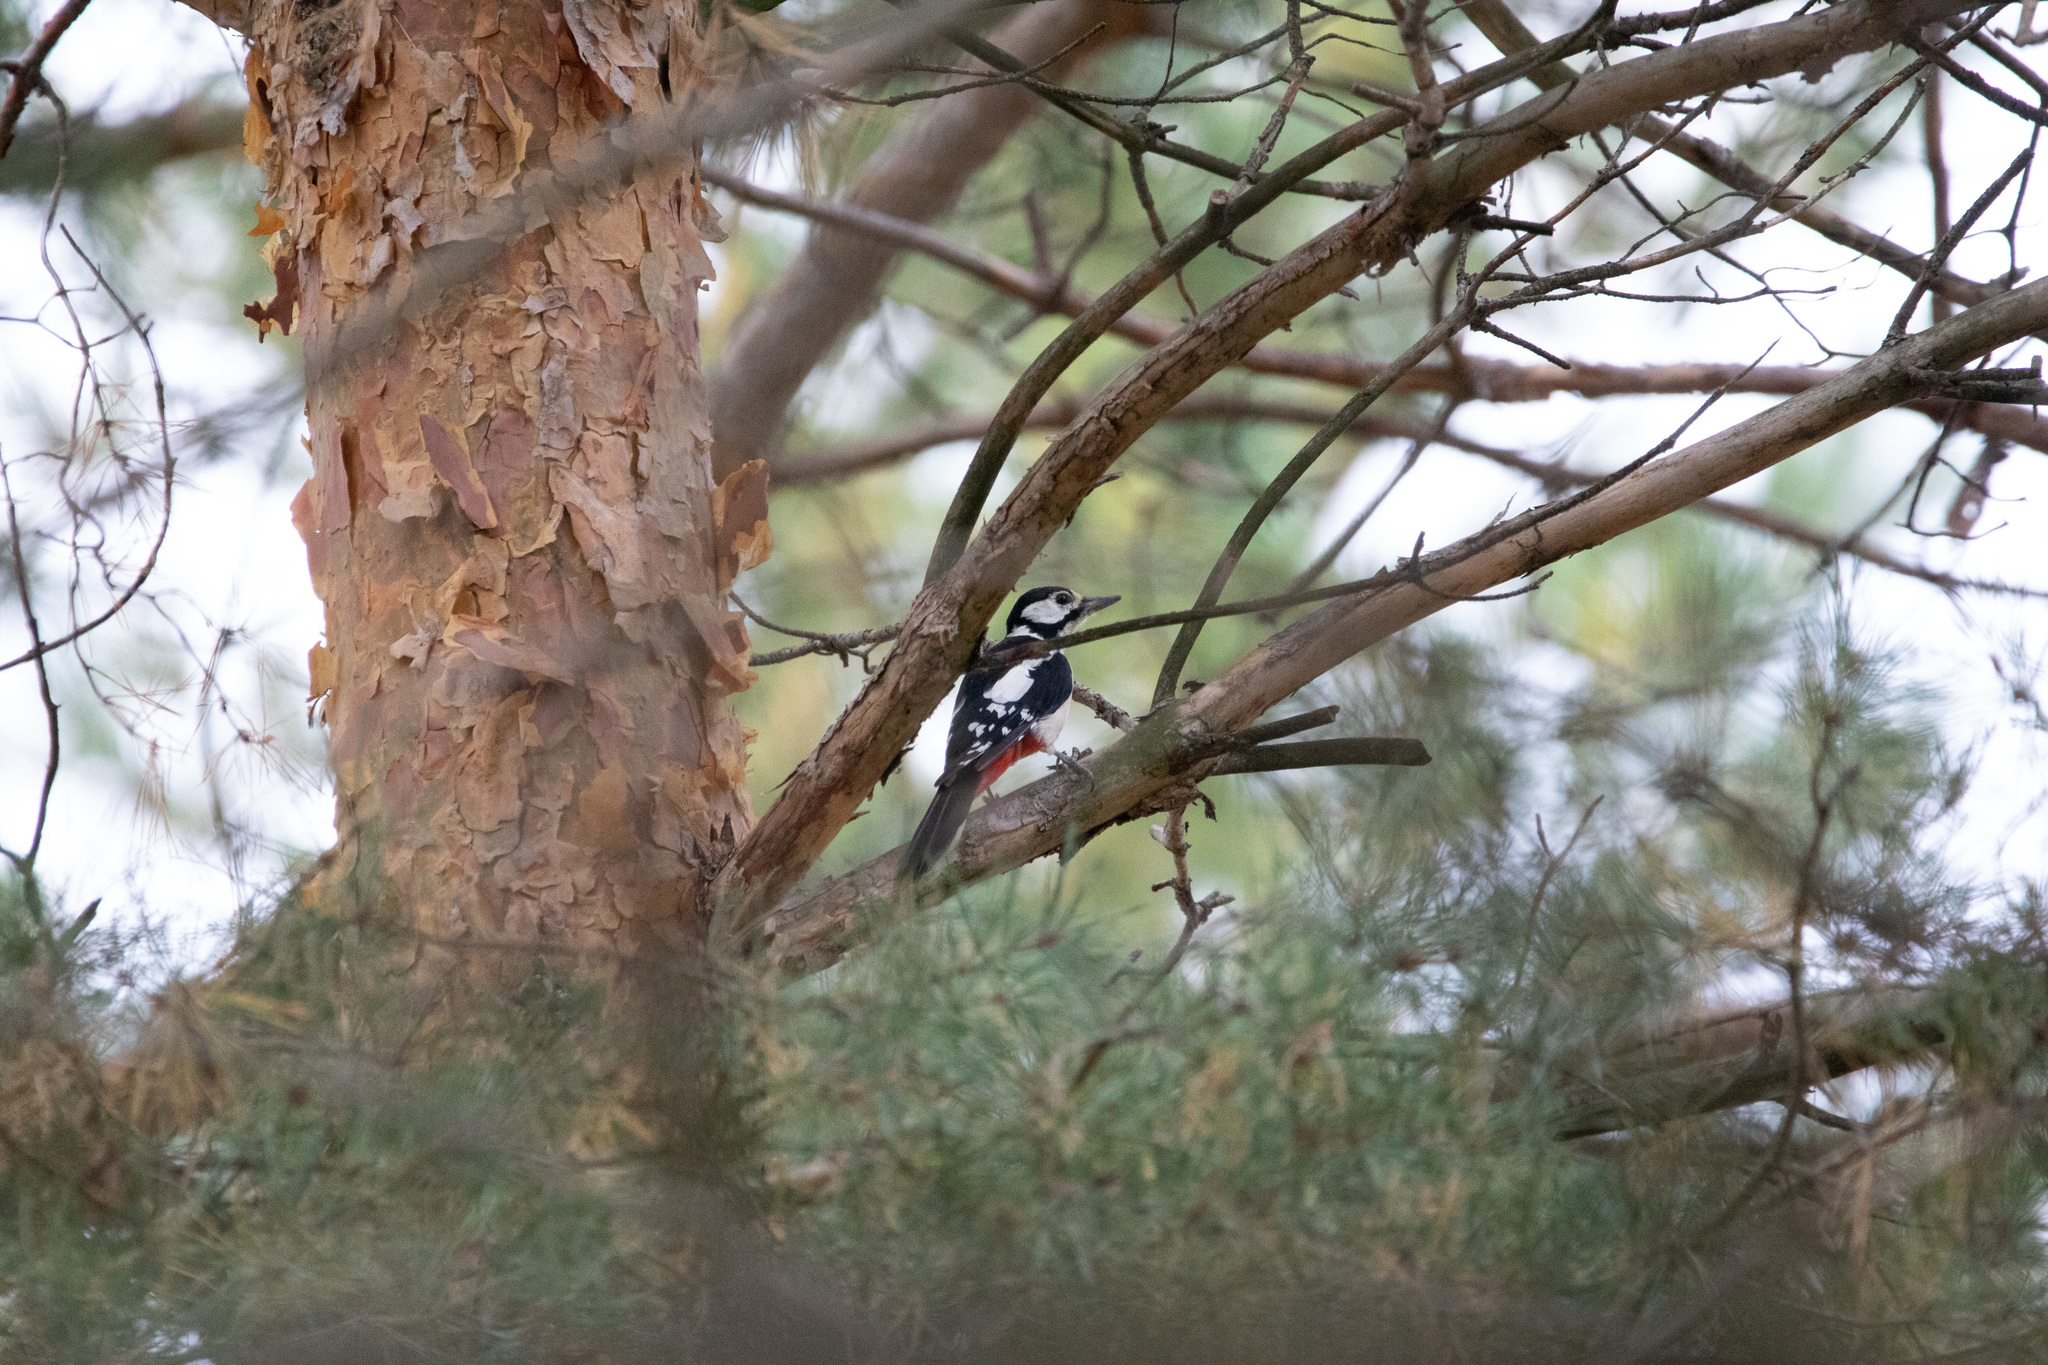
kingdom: Animalia
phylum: Chordata
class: Aves
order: Piciformes
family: Picidae
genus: Dendrocopos
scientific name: Dendrocopos major
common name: Great spotted woodpecker
